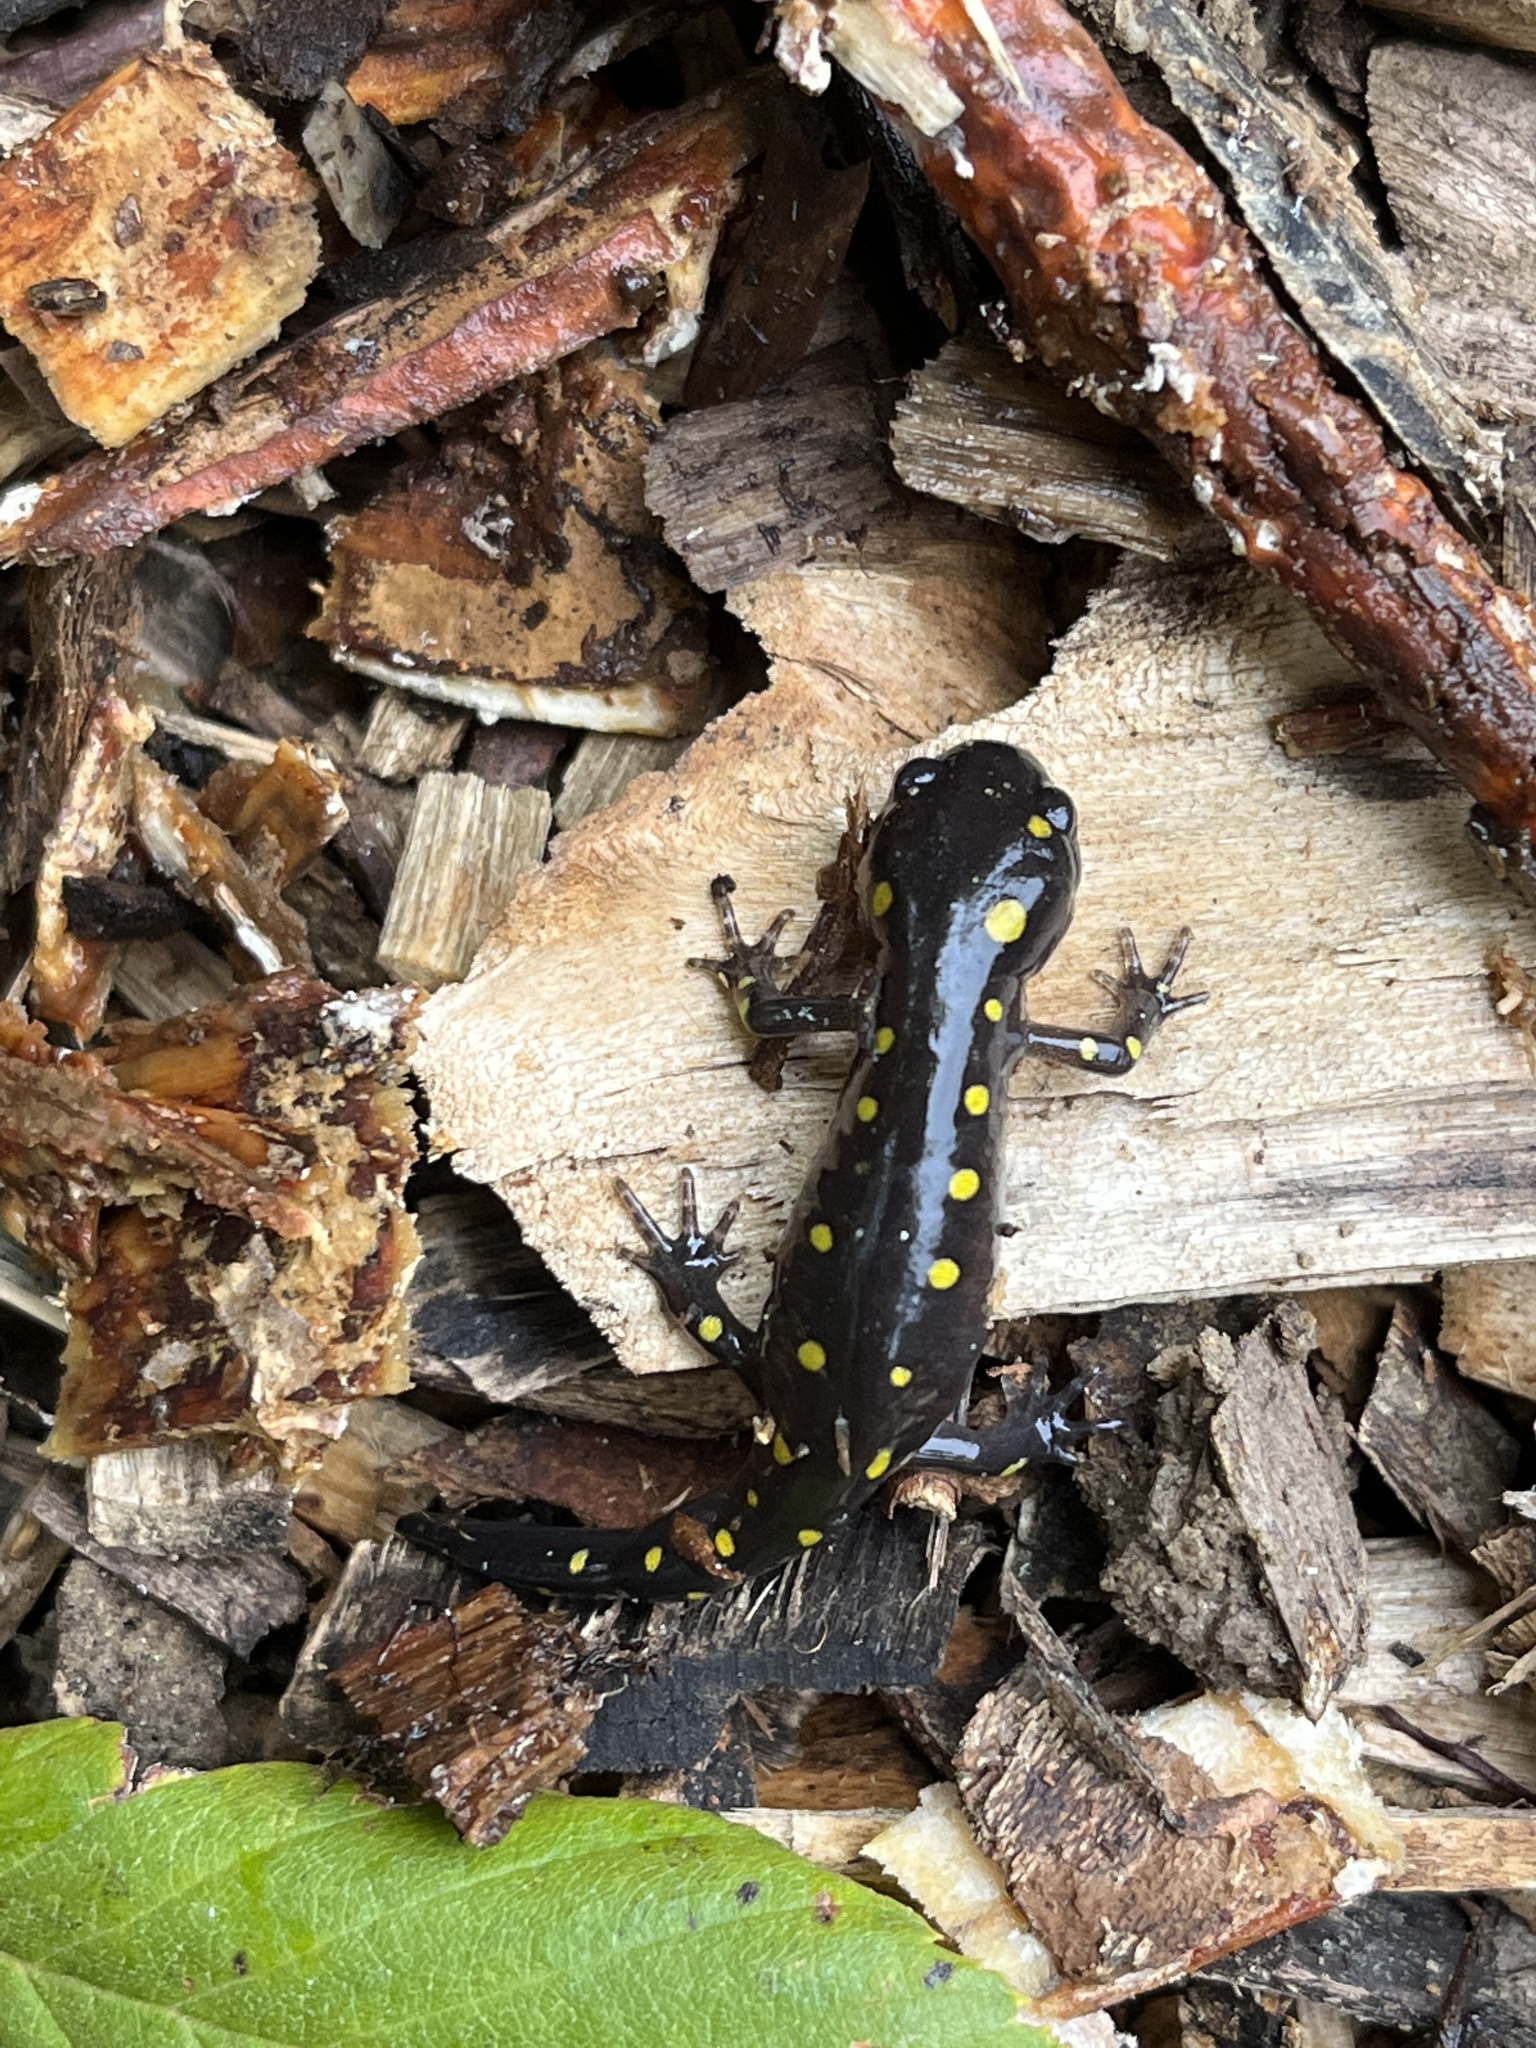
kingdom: Animalia
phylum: Chordata
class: Amphibia
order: Caudata
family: Ambystomatidae
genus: Ambystoma
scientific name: Ambystoma maculatum
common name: Spotted salamander
